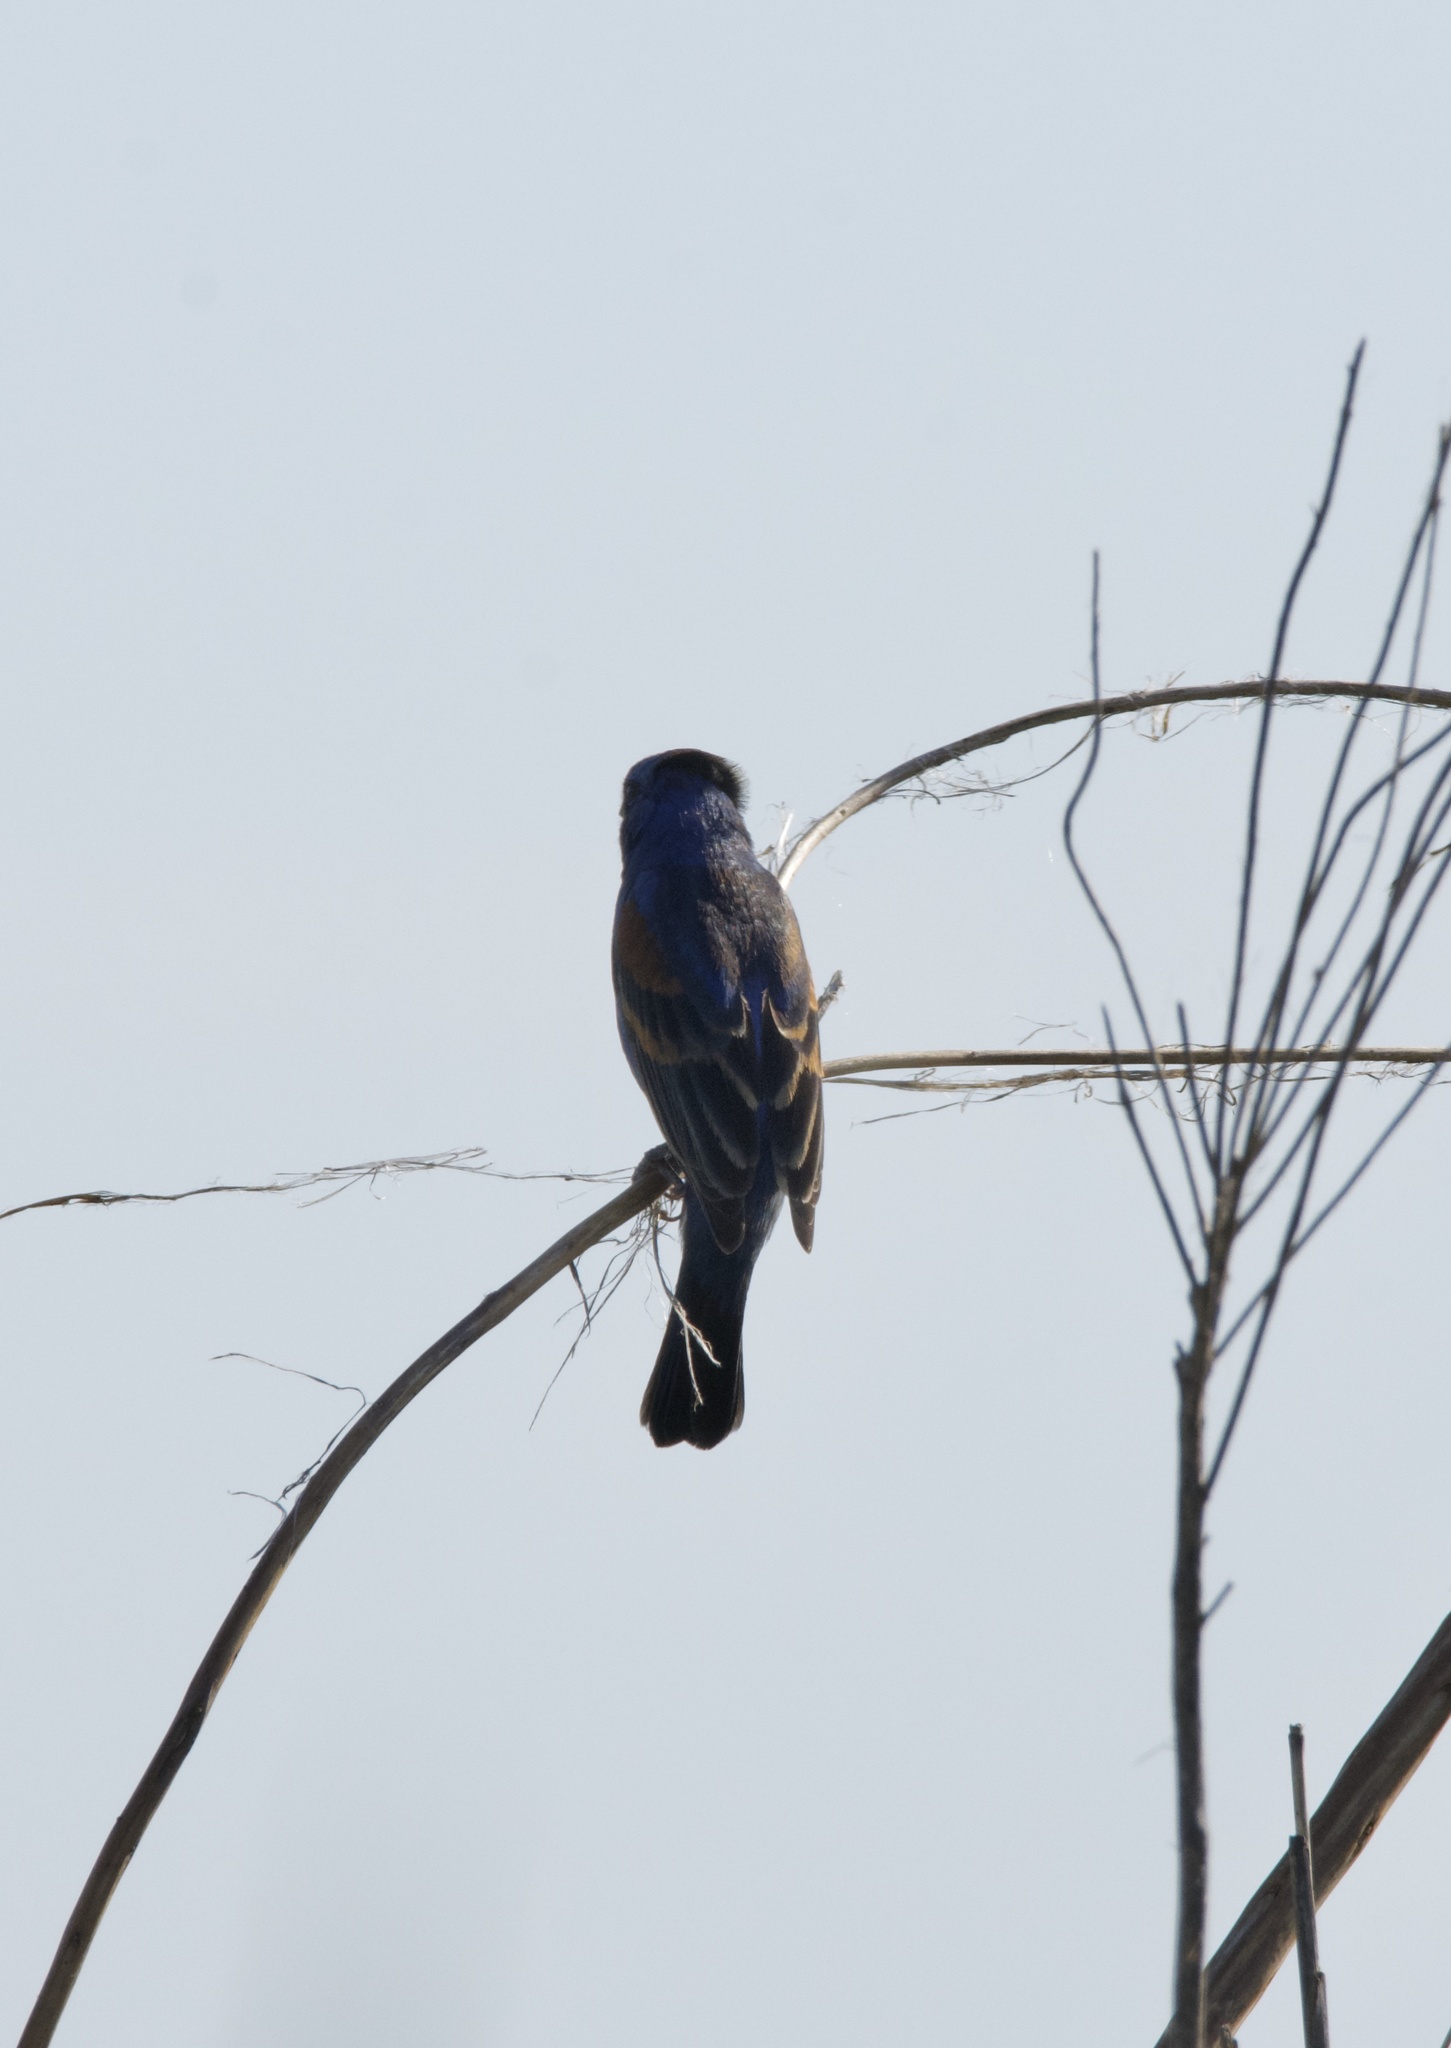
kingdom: Animalia
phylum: Chordata
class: Aves
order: Passeriformes
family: Cardinalidae
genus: Passerina
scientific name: Passerina caerulea
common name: Blue grosbeak
